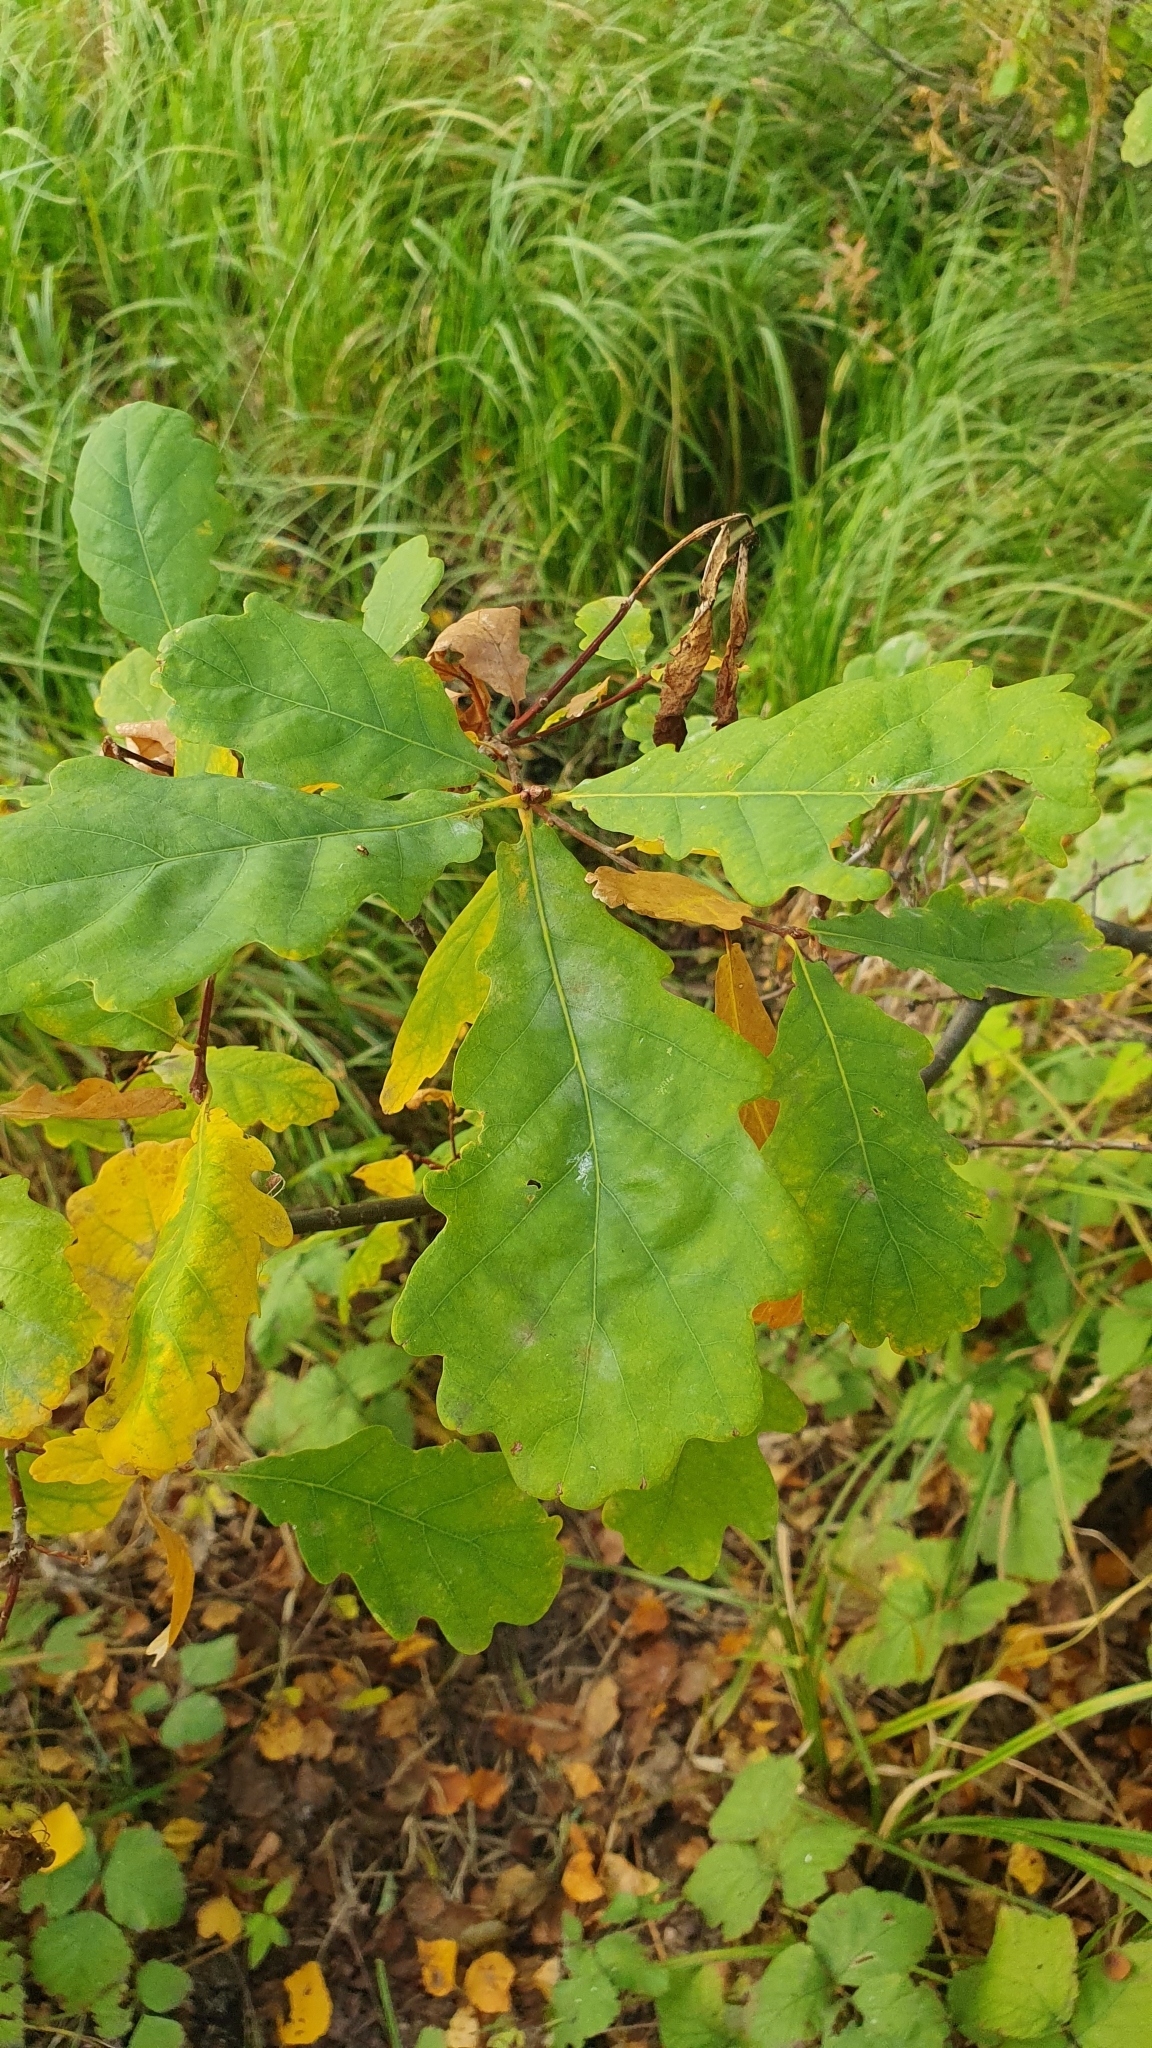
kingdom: Plantae
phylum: Tracheophyta
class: Magnoliopsida
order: Fagales
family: Fagaceae
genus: Quercus
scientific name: Quercus robur
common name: Pedunculate oak
